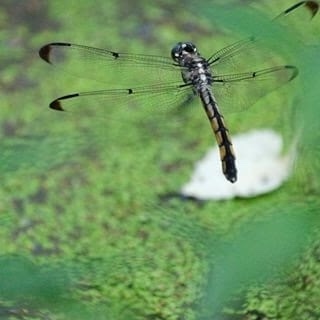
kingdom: Animalia
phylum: Arthropoda
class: Insecta
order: Odonata
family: Libellulidae
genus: Libellula
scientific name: Libellula vibrans
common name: Great blue skimmer
